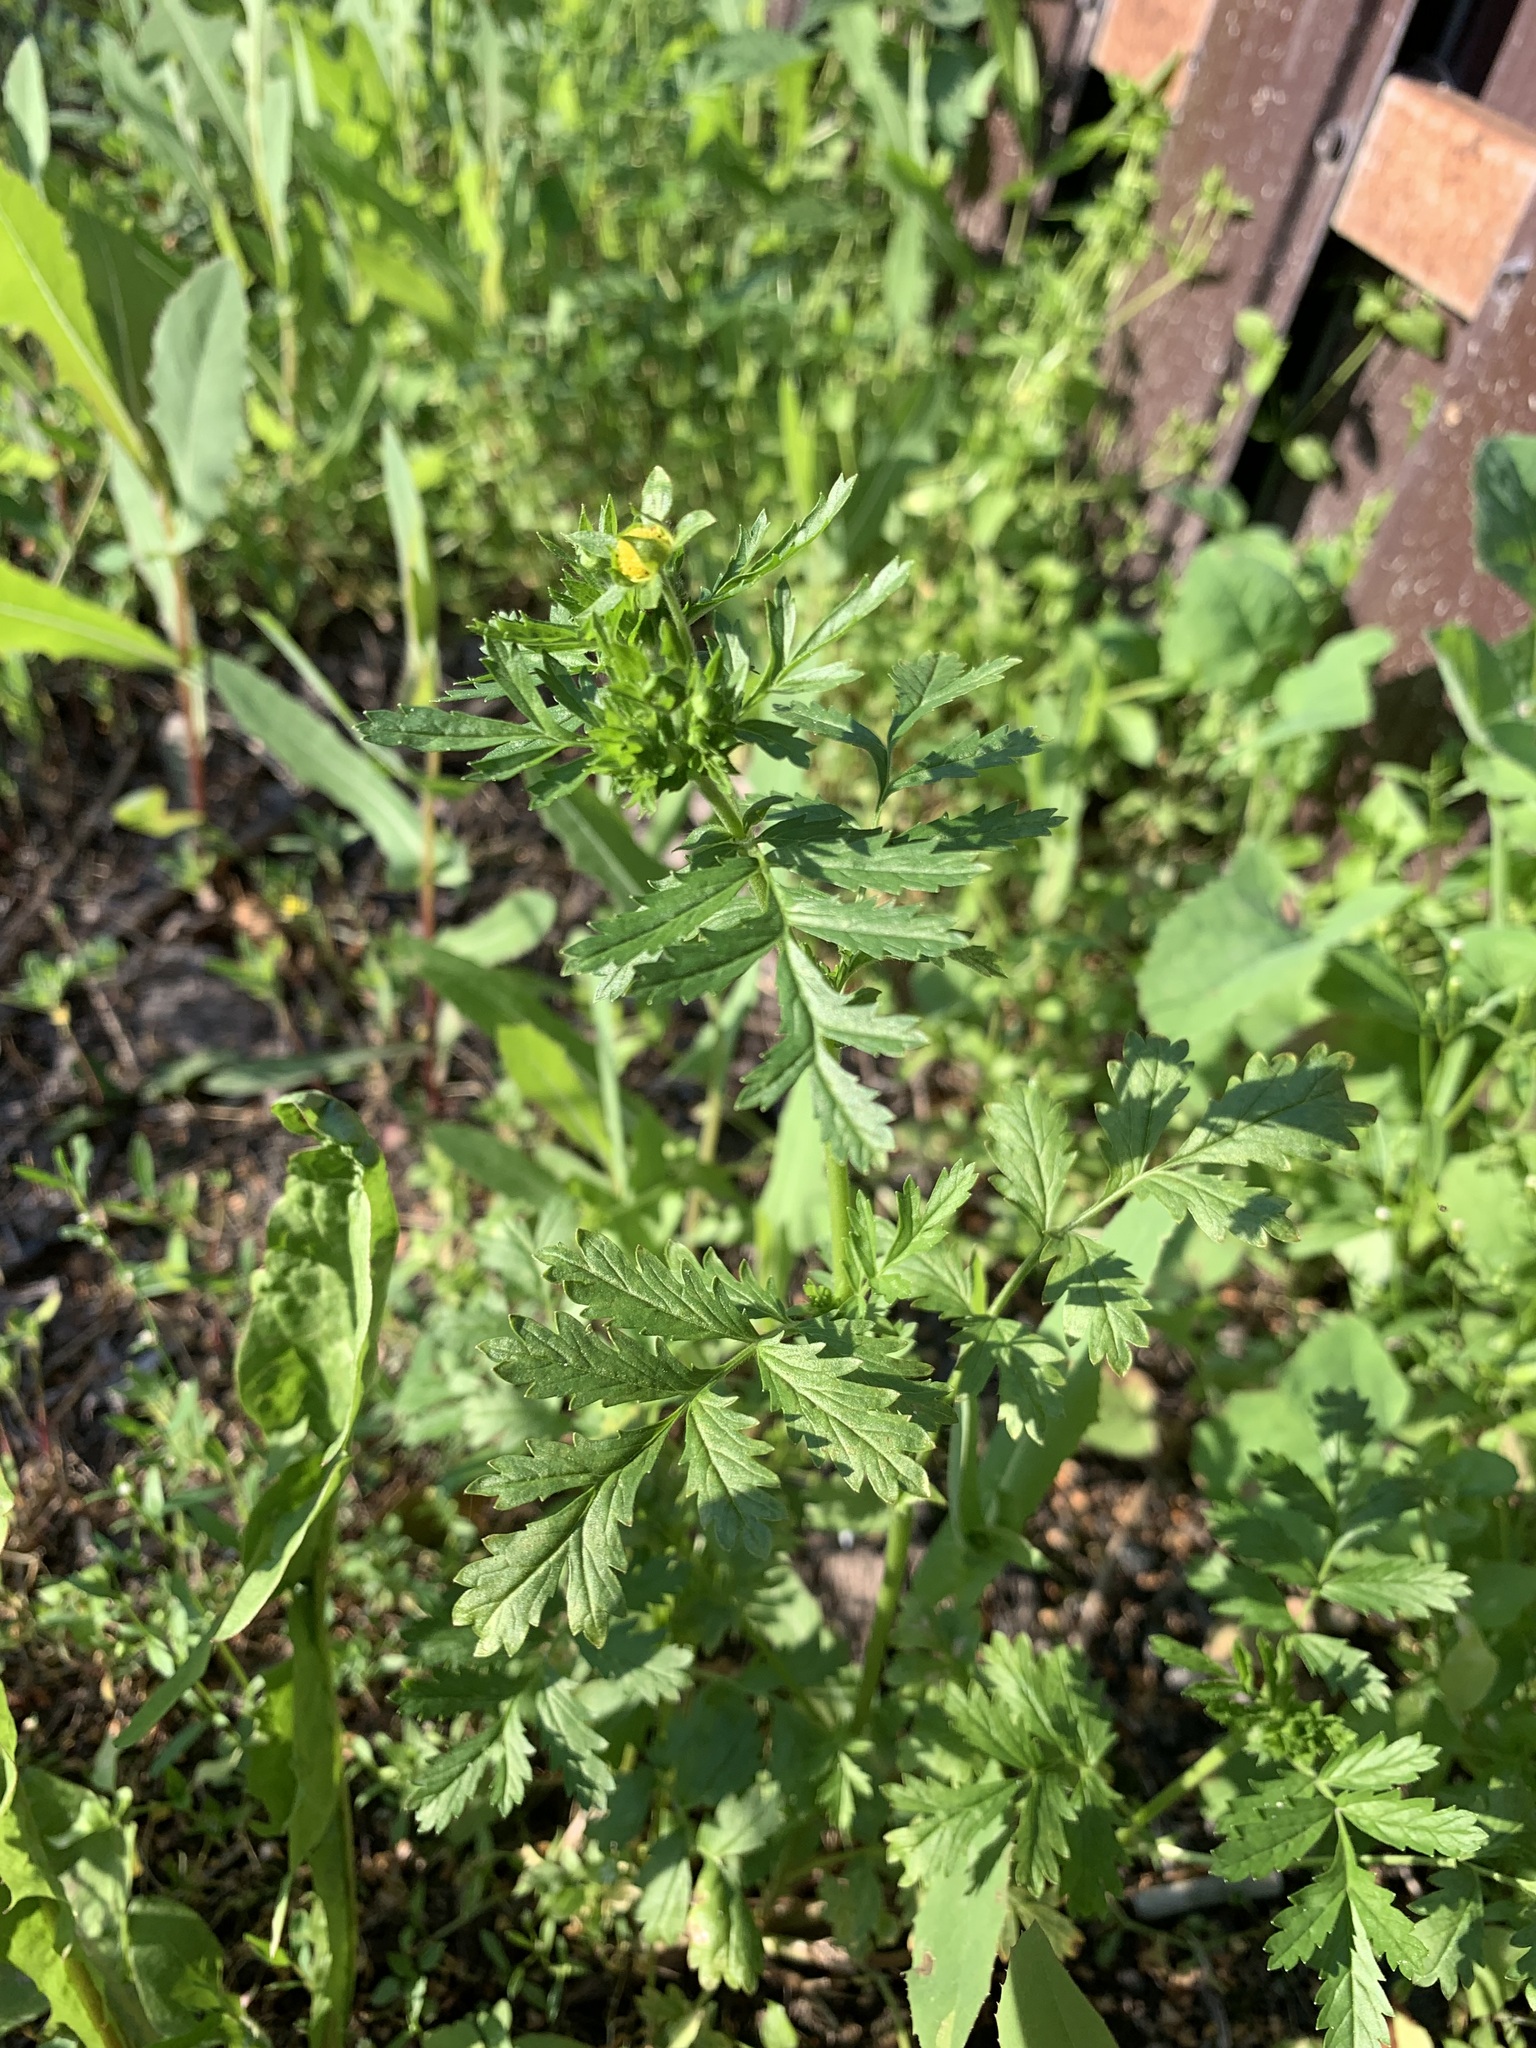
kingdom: Plantae
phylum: Tracheophyta
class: Magnoliopsida
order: Rosales
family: Rosaceae
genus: Potentilla
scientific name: Potentilla supina
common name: Prostrate cinquefoil
